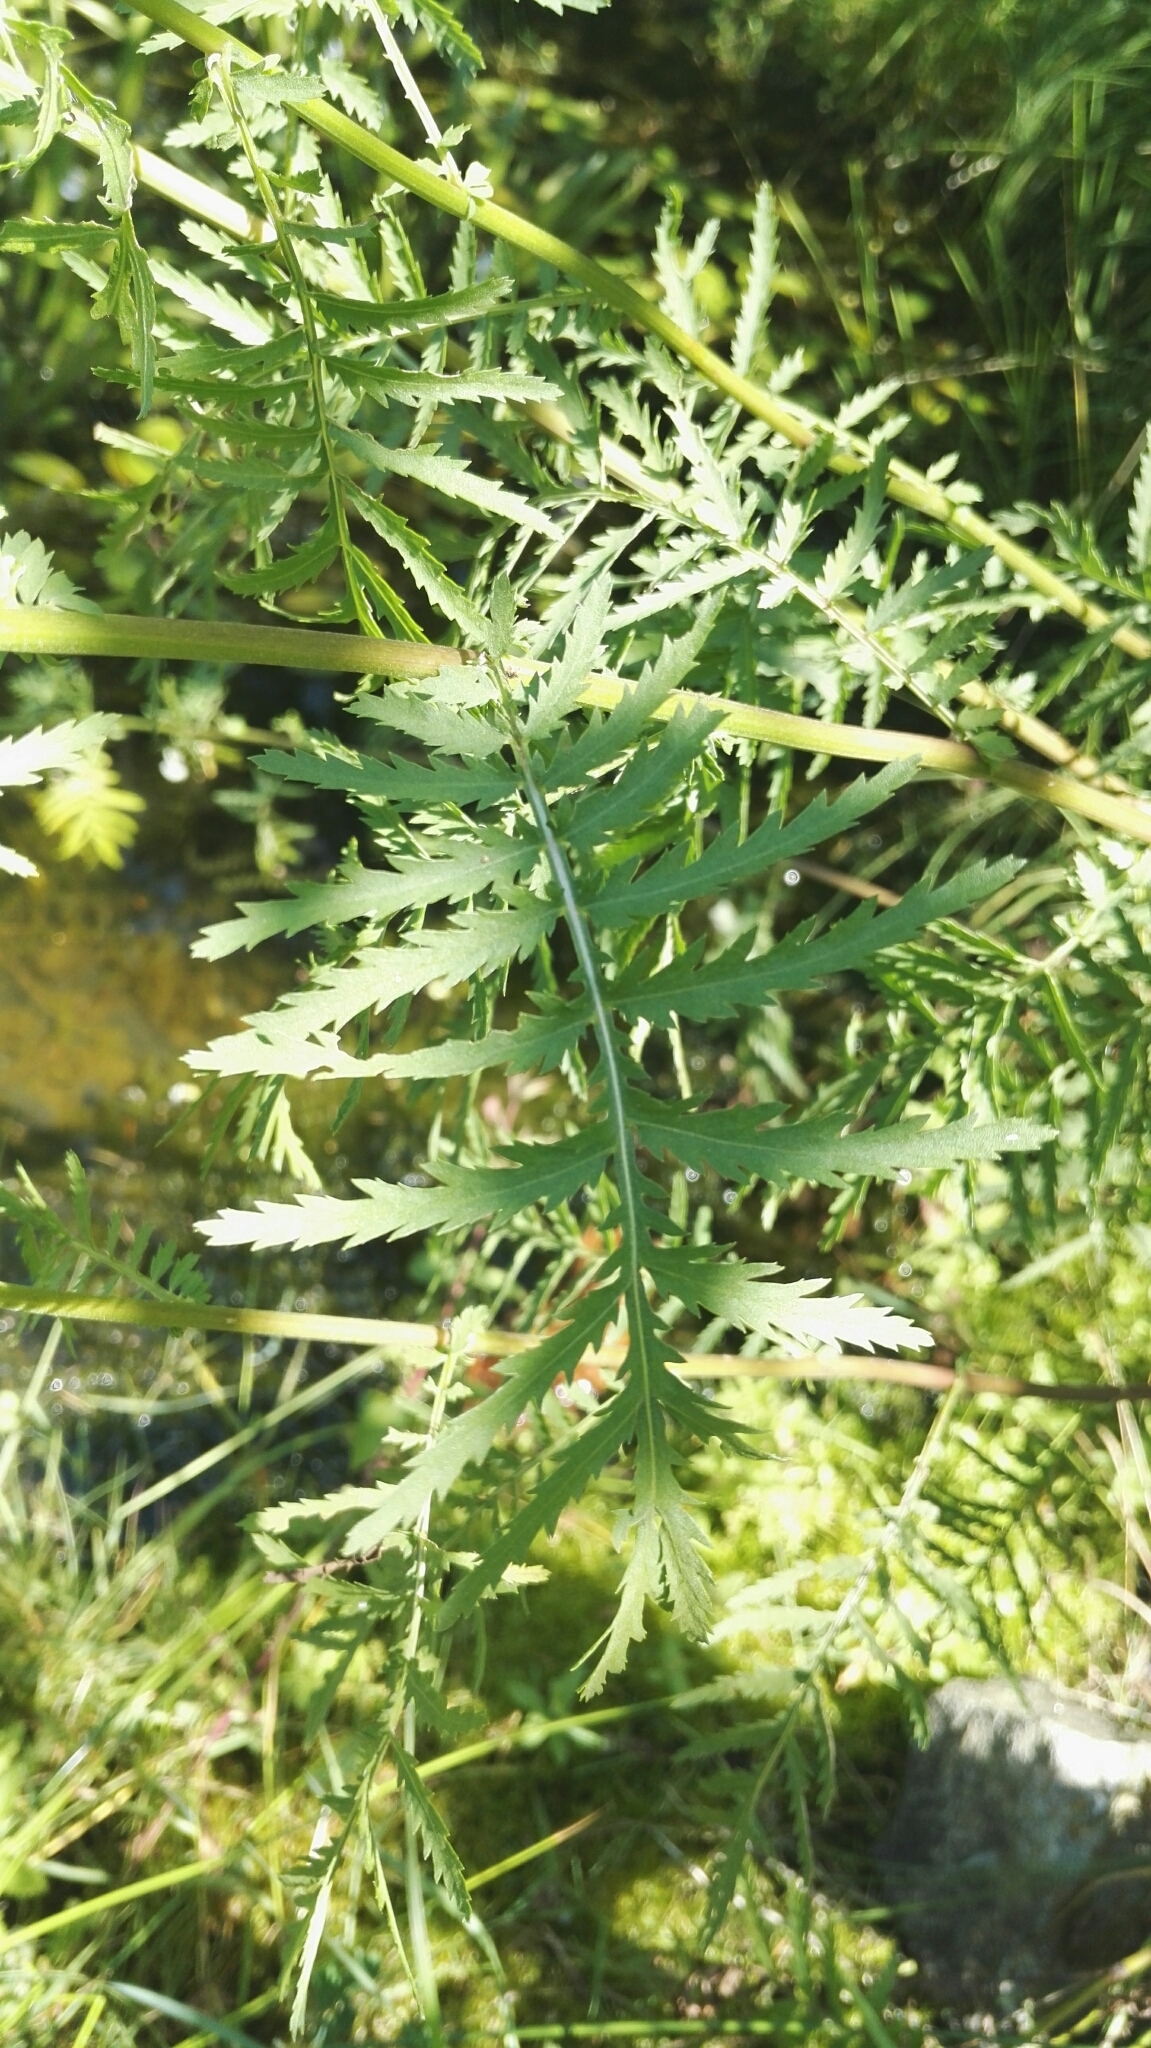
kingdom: Plantae
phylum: Tracheophyta
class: Magnoliopsida
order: Asterales
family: Asteraceae
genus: Tanacetum
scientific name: Tanacetum vulgare
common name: Common tansy
